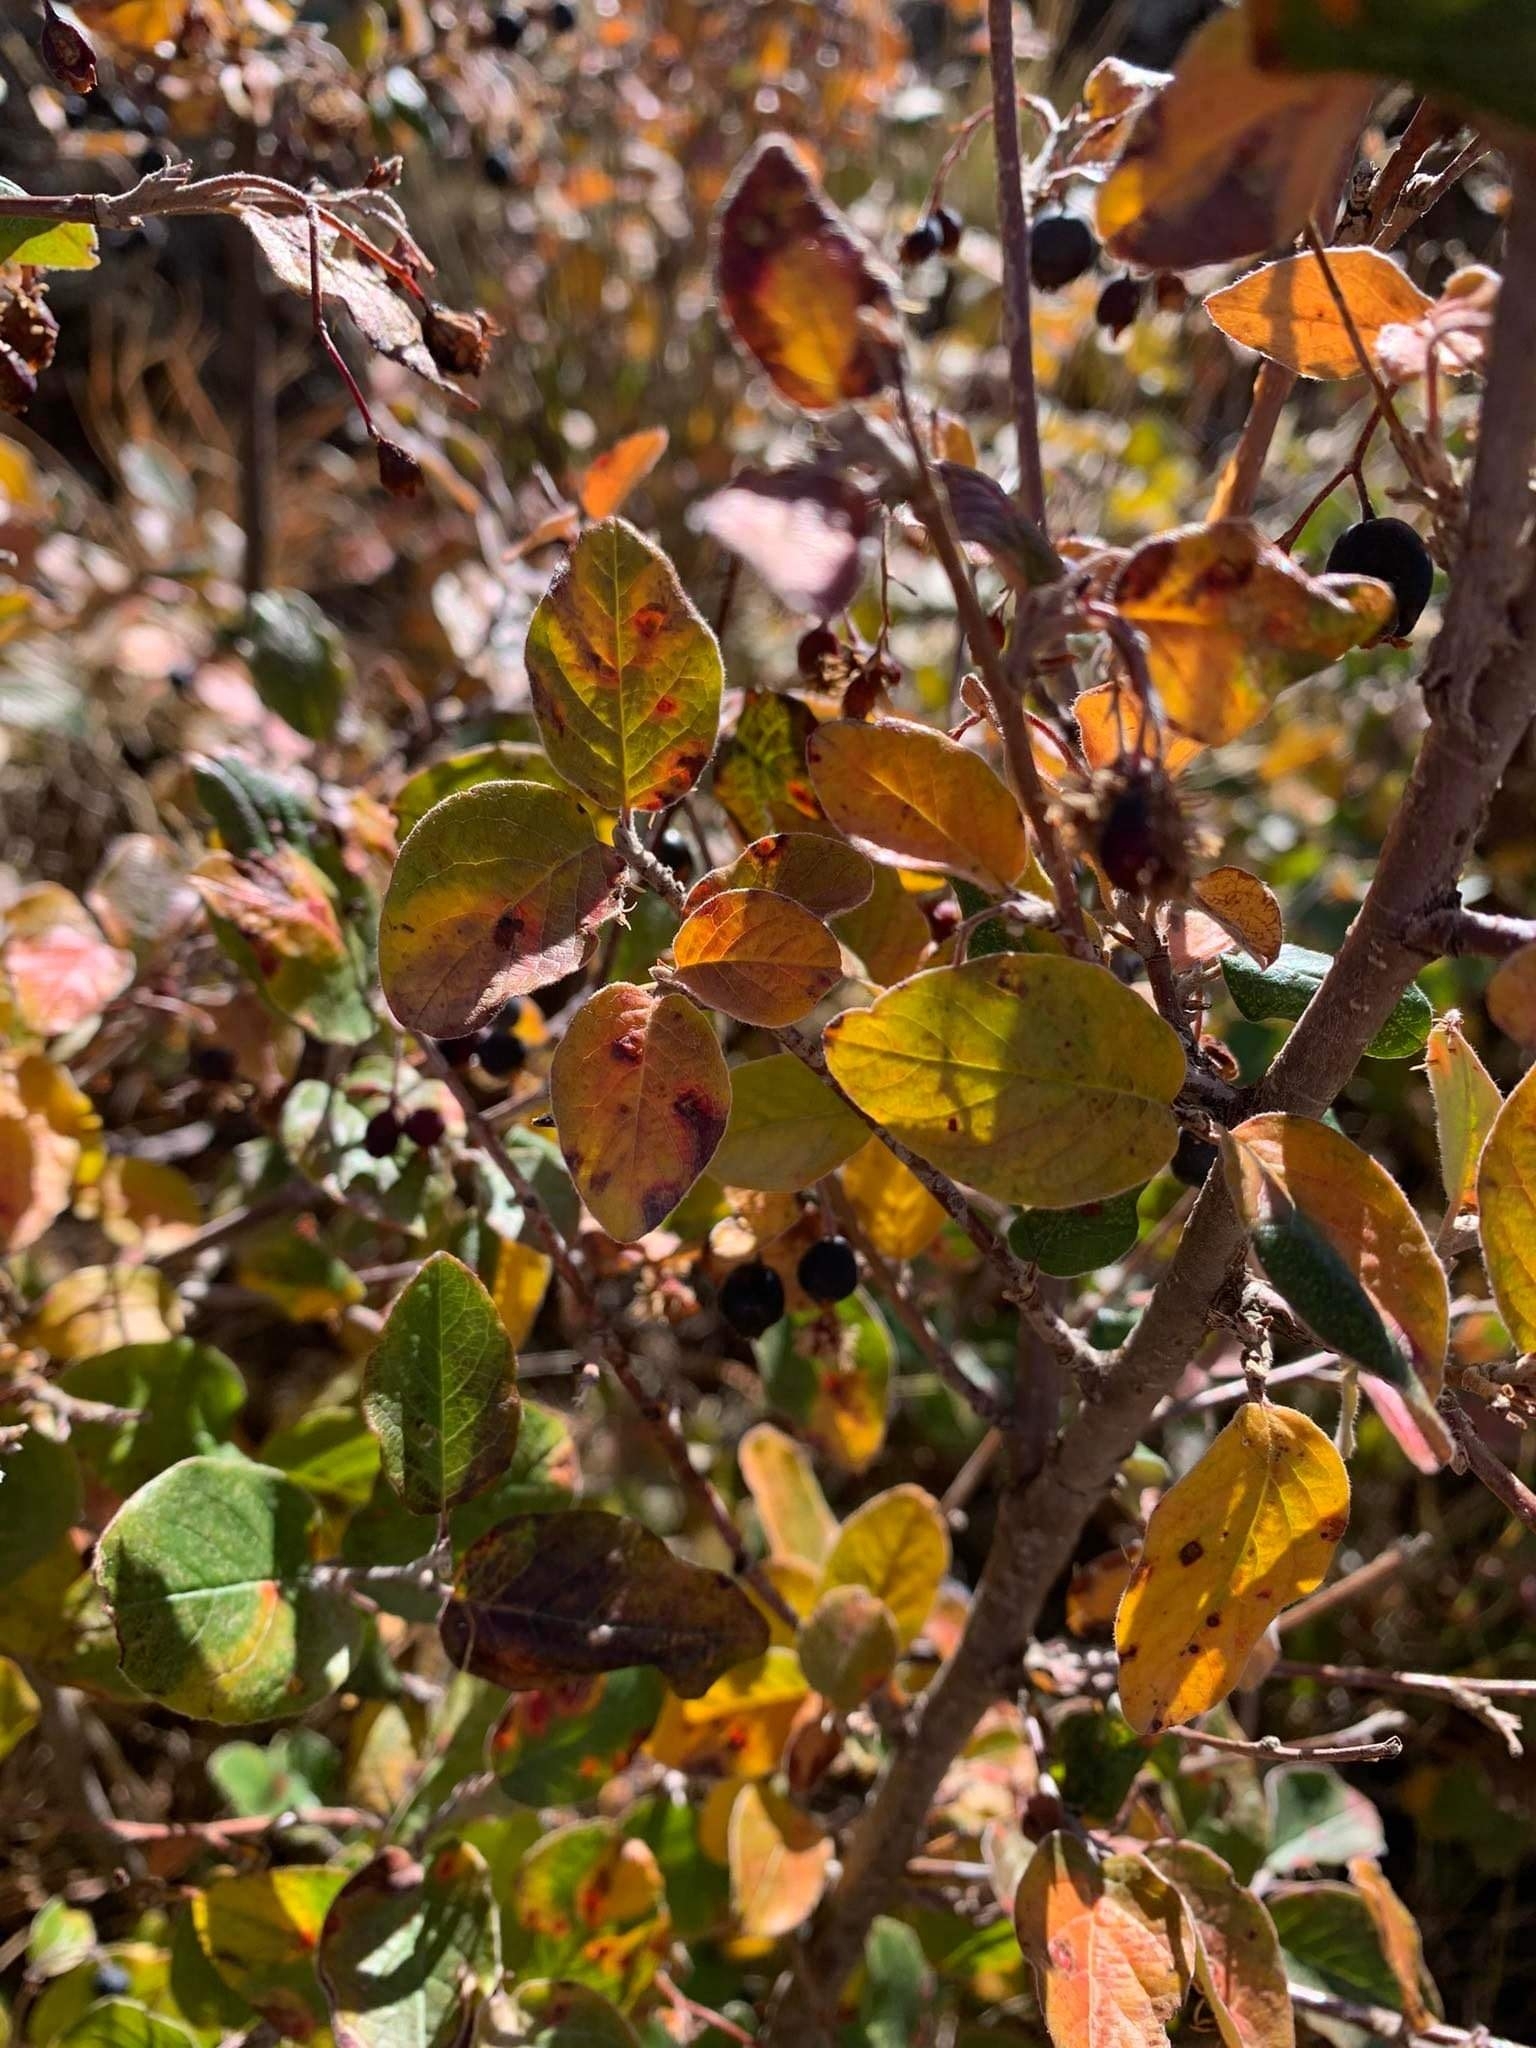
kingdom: Plantae
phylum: Tracheophyta
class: Magnoliopsida
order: Rosales
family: Rosaceae
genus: Cotoneaster
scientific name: Cotoneaster melanocarpus
